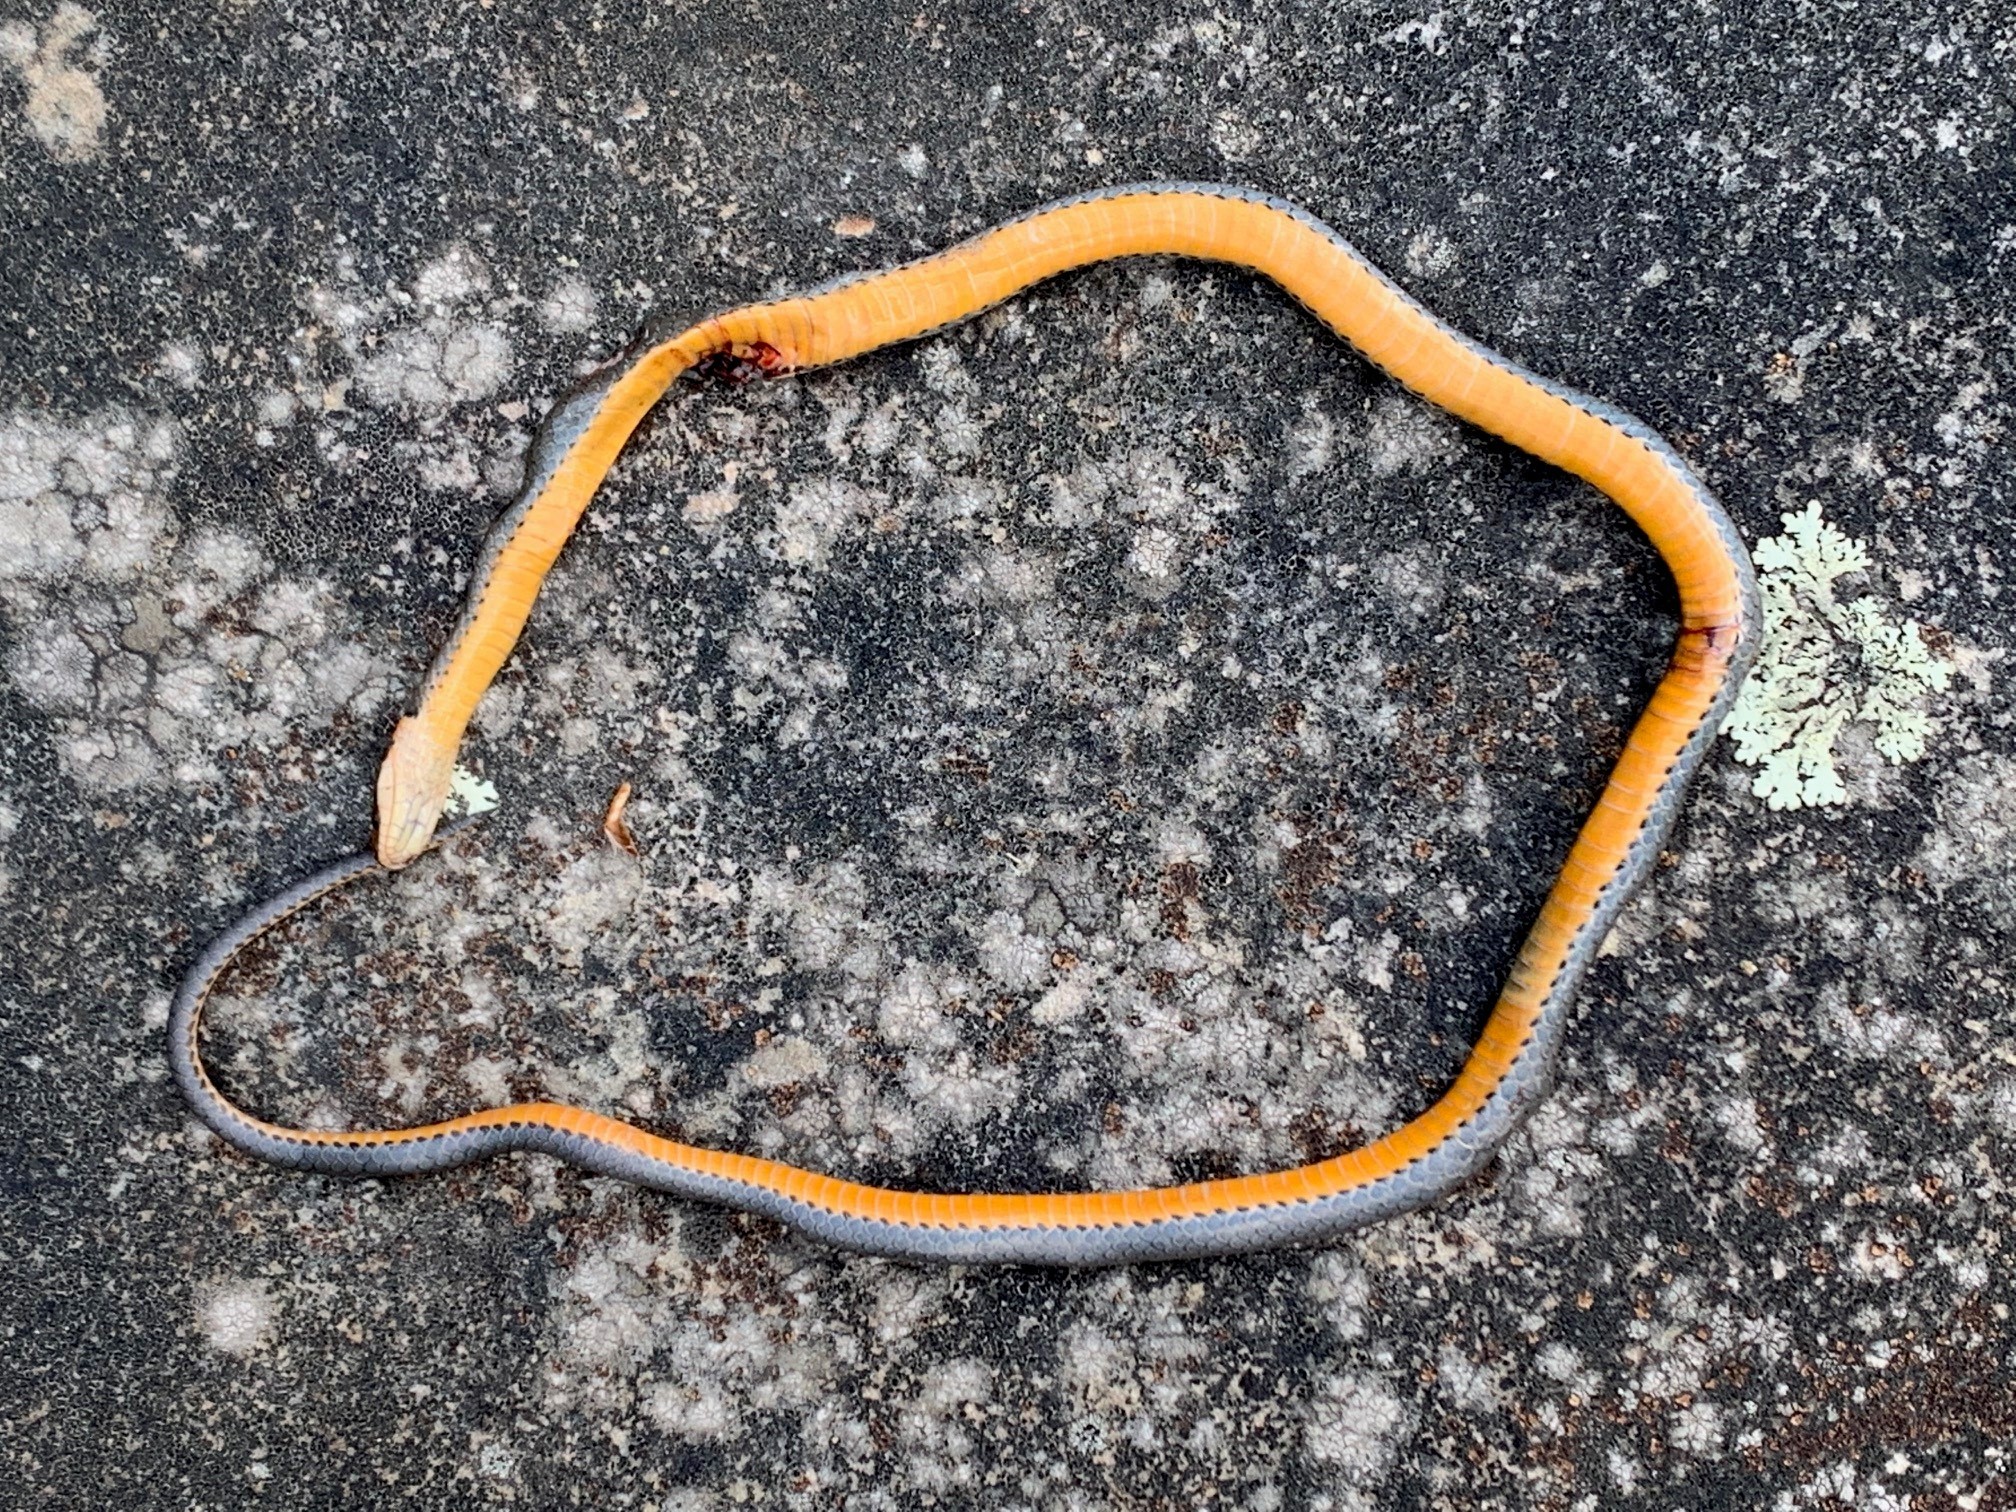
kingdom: Animalia
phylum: Chordata
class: Squamata
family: Colubridae
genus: Diadophis
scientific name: Diadophis punctatus
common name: Ringneck snake
